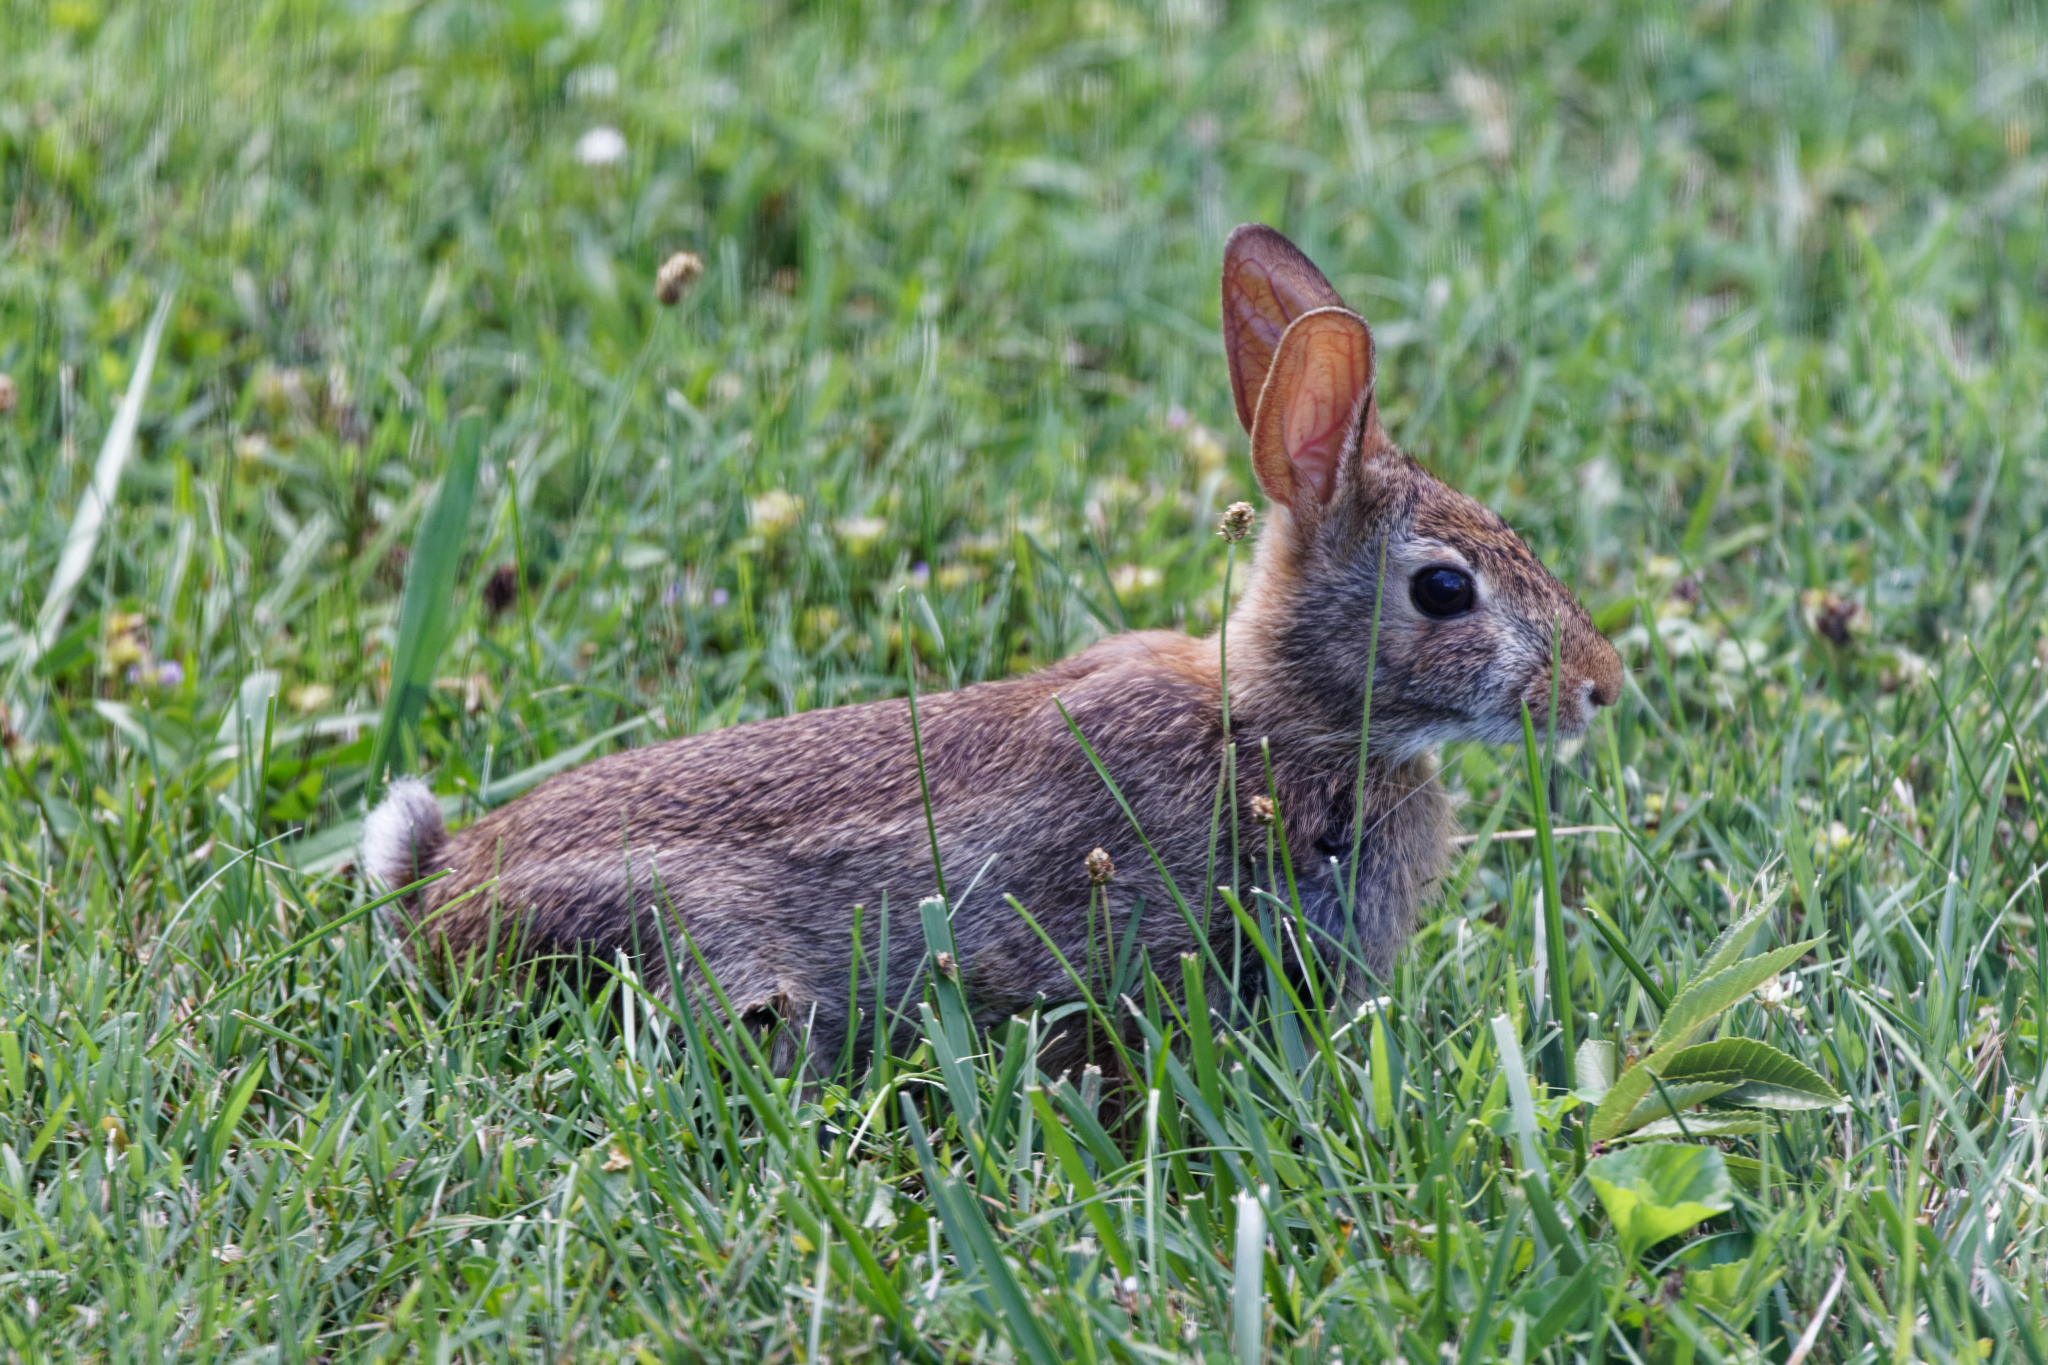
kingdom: Animalia
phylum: Chordata
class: Mammalia
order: Lagomorpha
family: Leporidae
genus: Sylvilagus
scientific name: Sylvilagus floridanus
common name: Eastern cottontail
